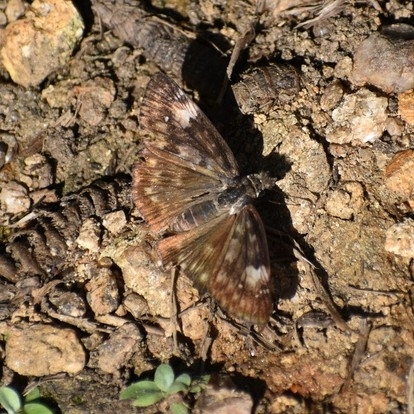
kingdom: Animalia
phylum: Arthropoda
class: Insecta
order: Lepidoptera
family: Hesperiidae
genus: Erynnis
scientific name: Erynnis zarucco
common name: Zarucco duskywing
